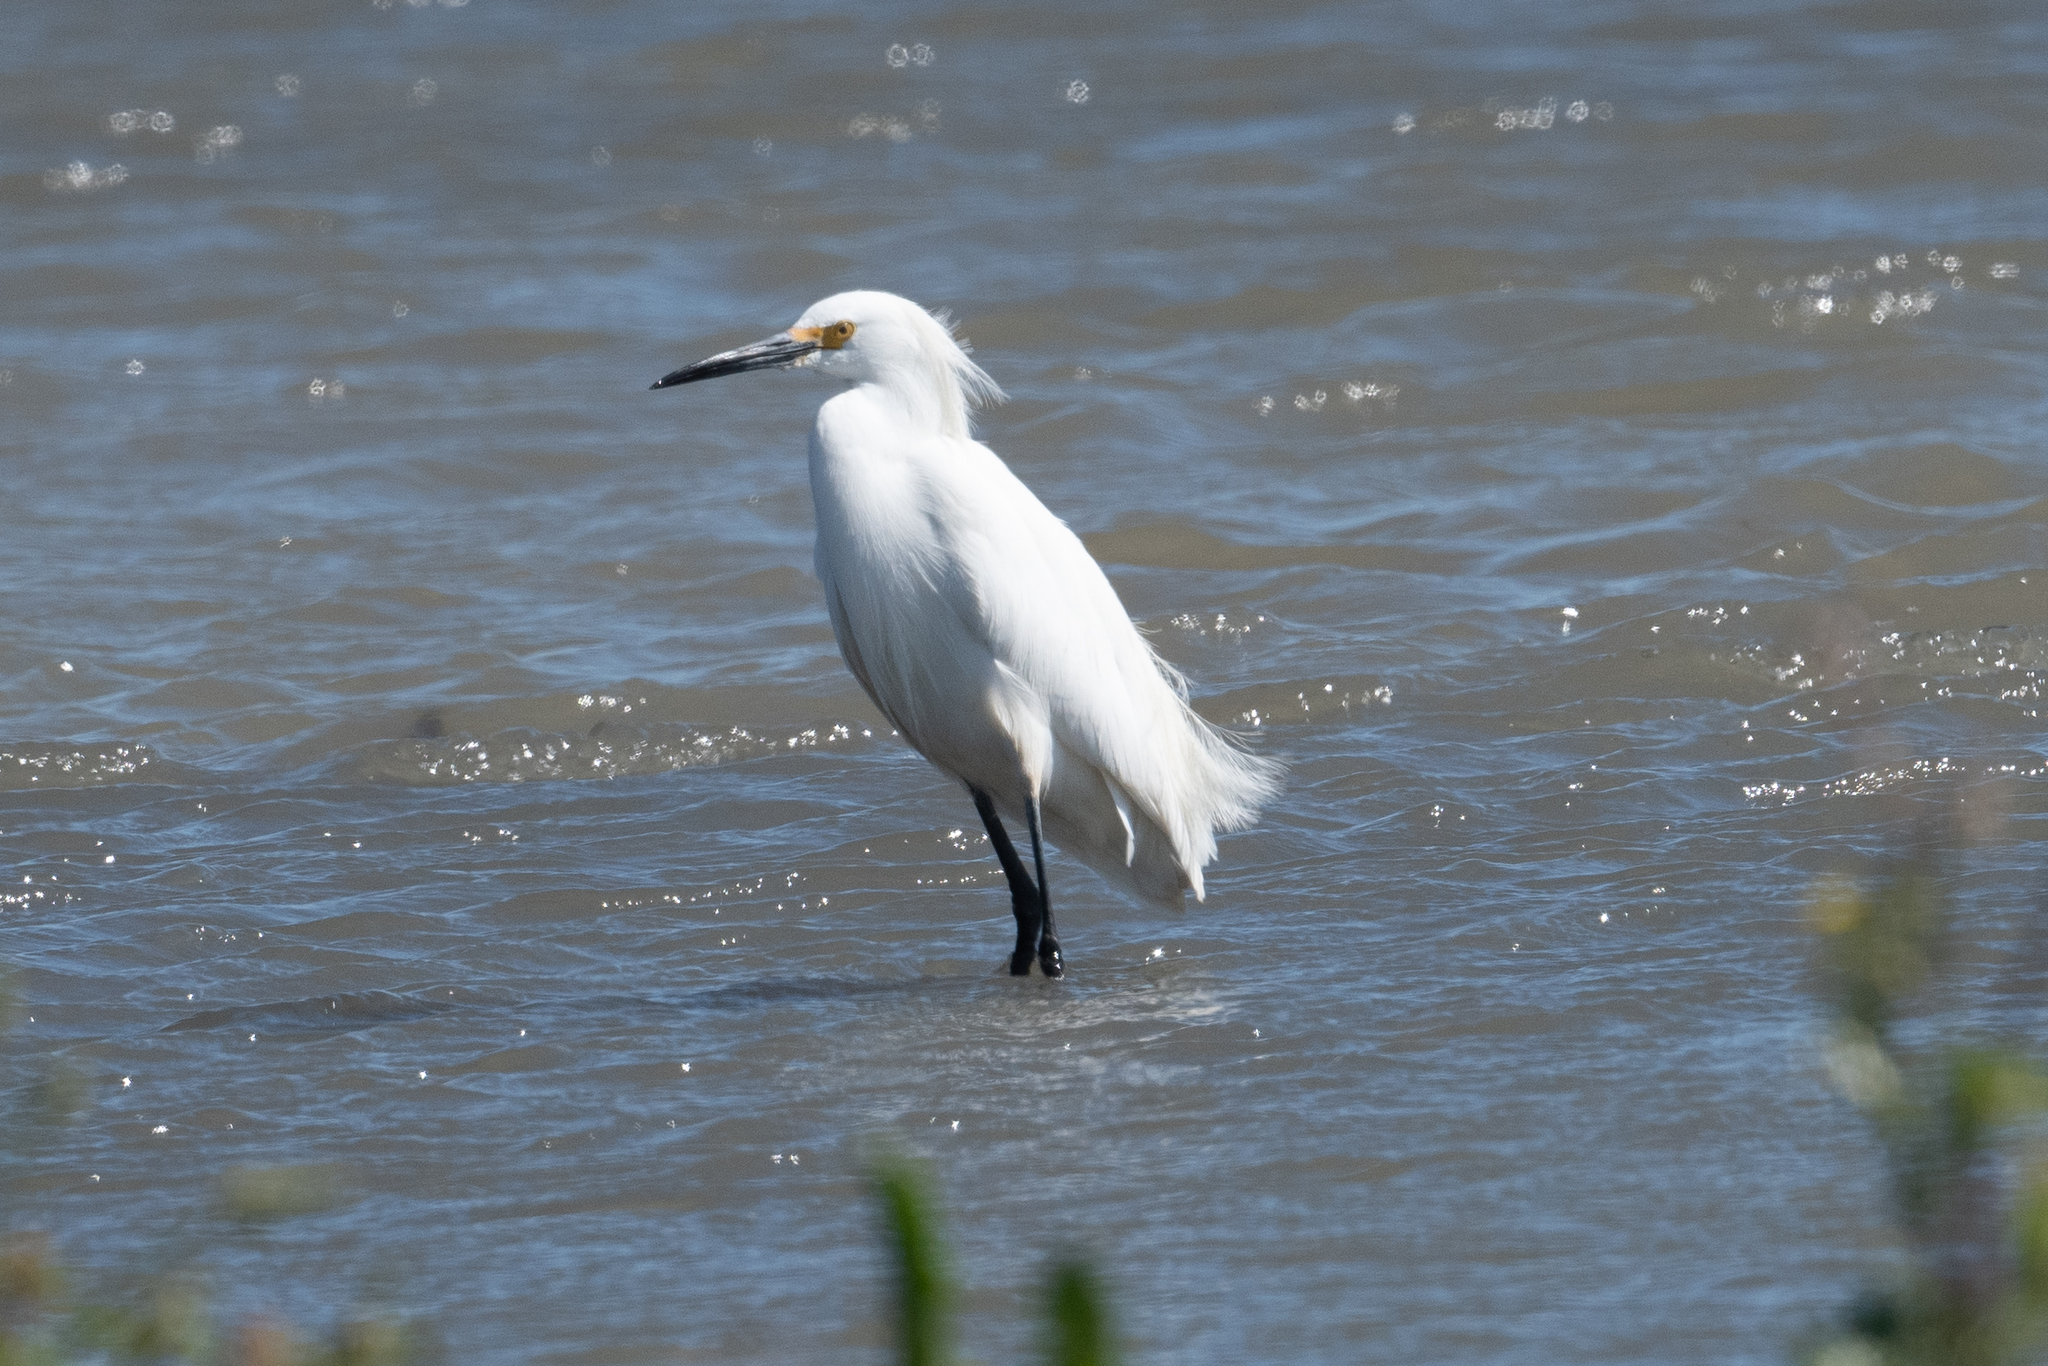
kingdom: Animalia
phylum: Chordata
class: Aves
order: Pelecaniformes
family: Ardeidae
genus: Egretta
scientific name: Egretta thula
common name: Snowy egret
